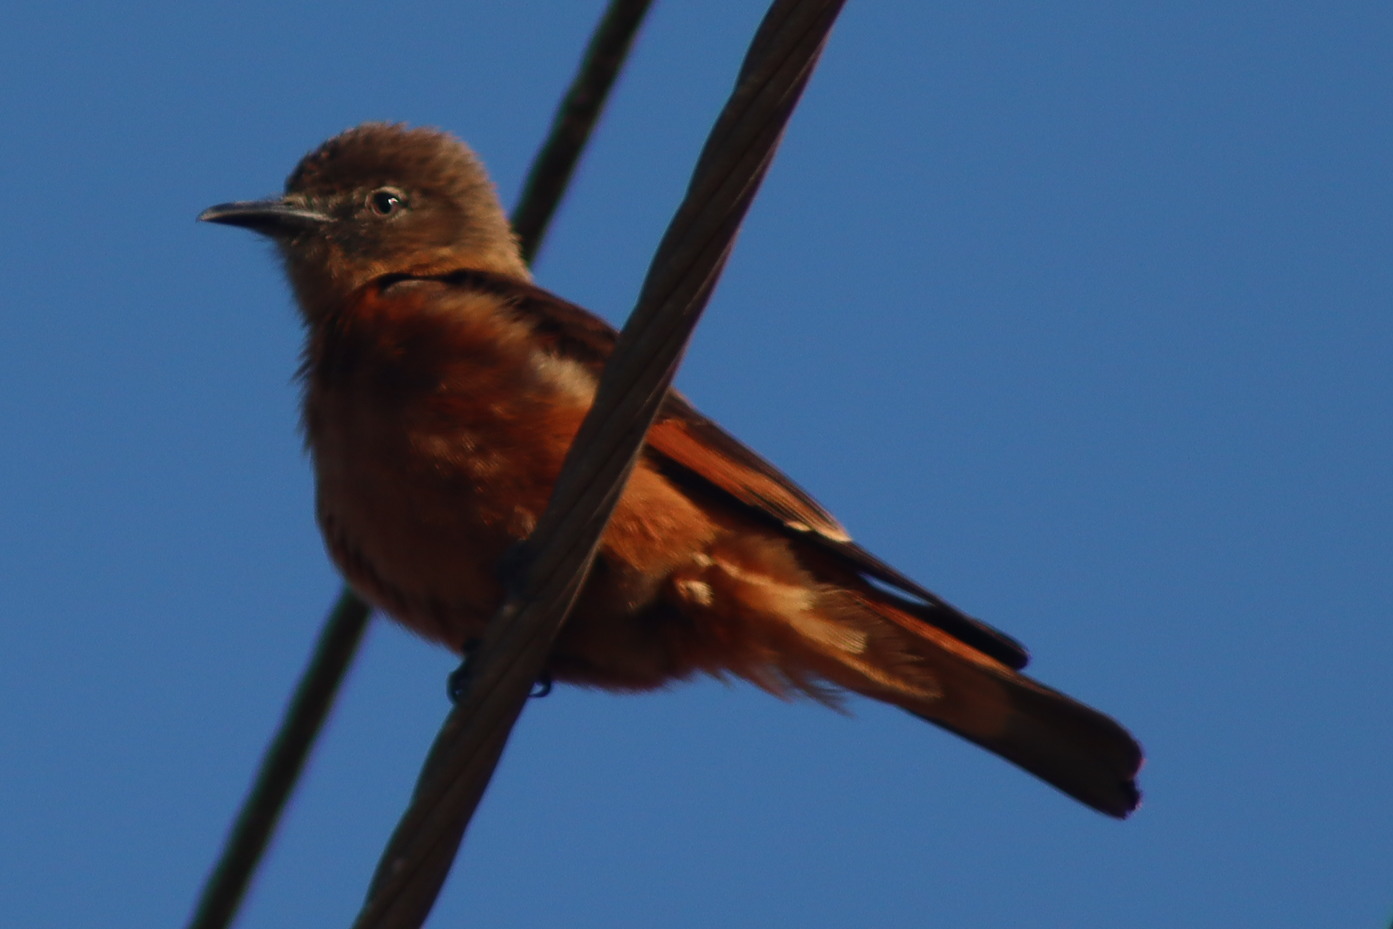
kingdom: Animalia
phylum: Chordata
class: Aves
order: Passeriformes
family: Tyrannidae
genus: Hirundinea
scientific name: Hirundinea ferruginea
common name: Cliff flycatcher
